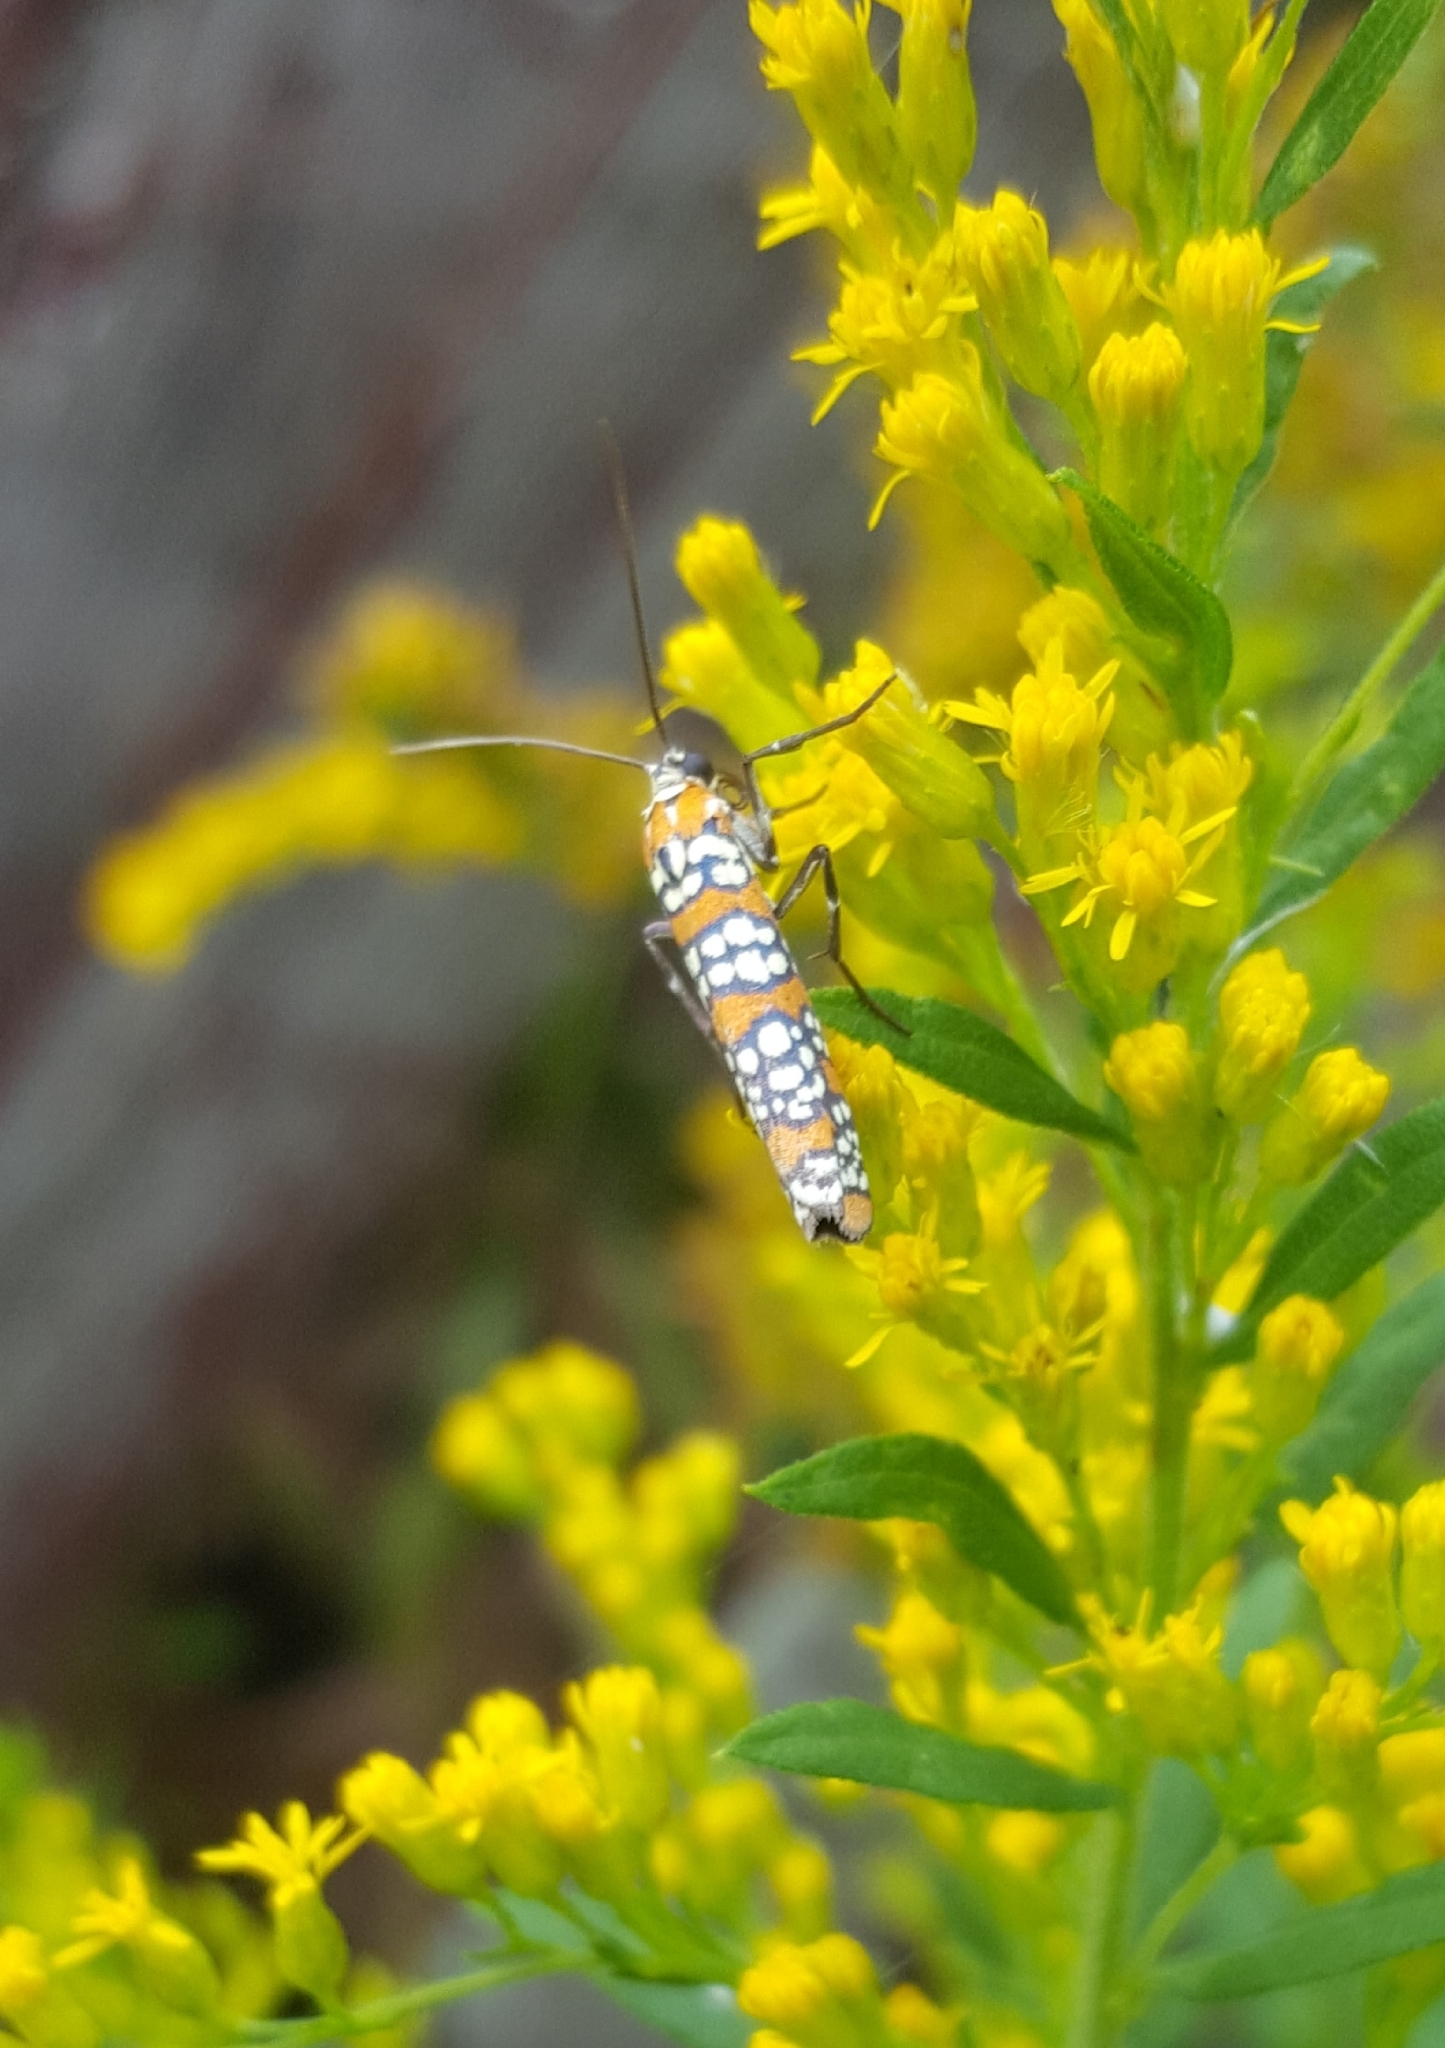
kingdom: Animalia
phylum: Arthropoda
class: Insecta
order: Lepidoptera
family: Attevidae
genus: Atteva
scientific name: Atteva punctella
